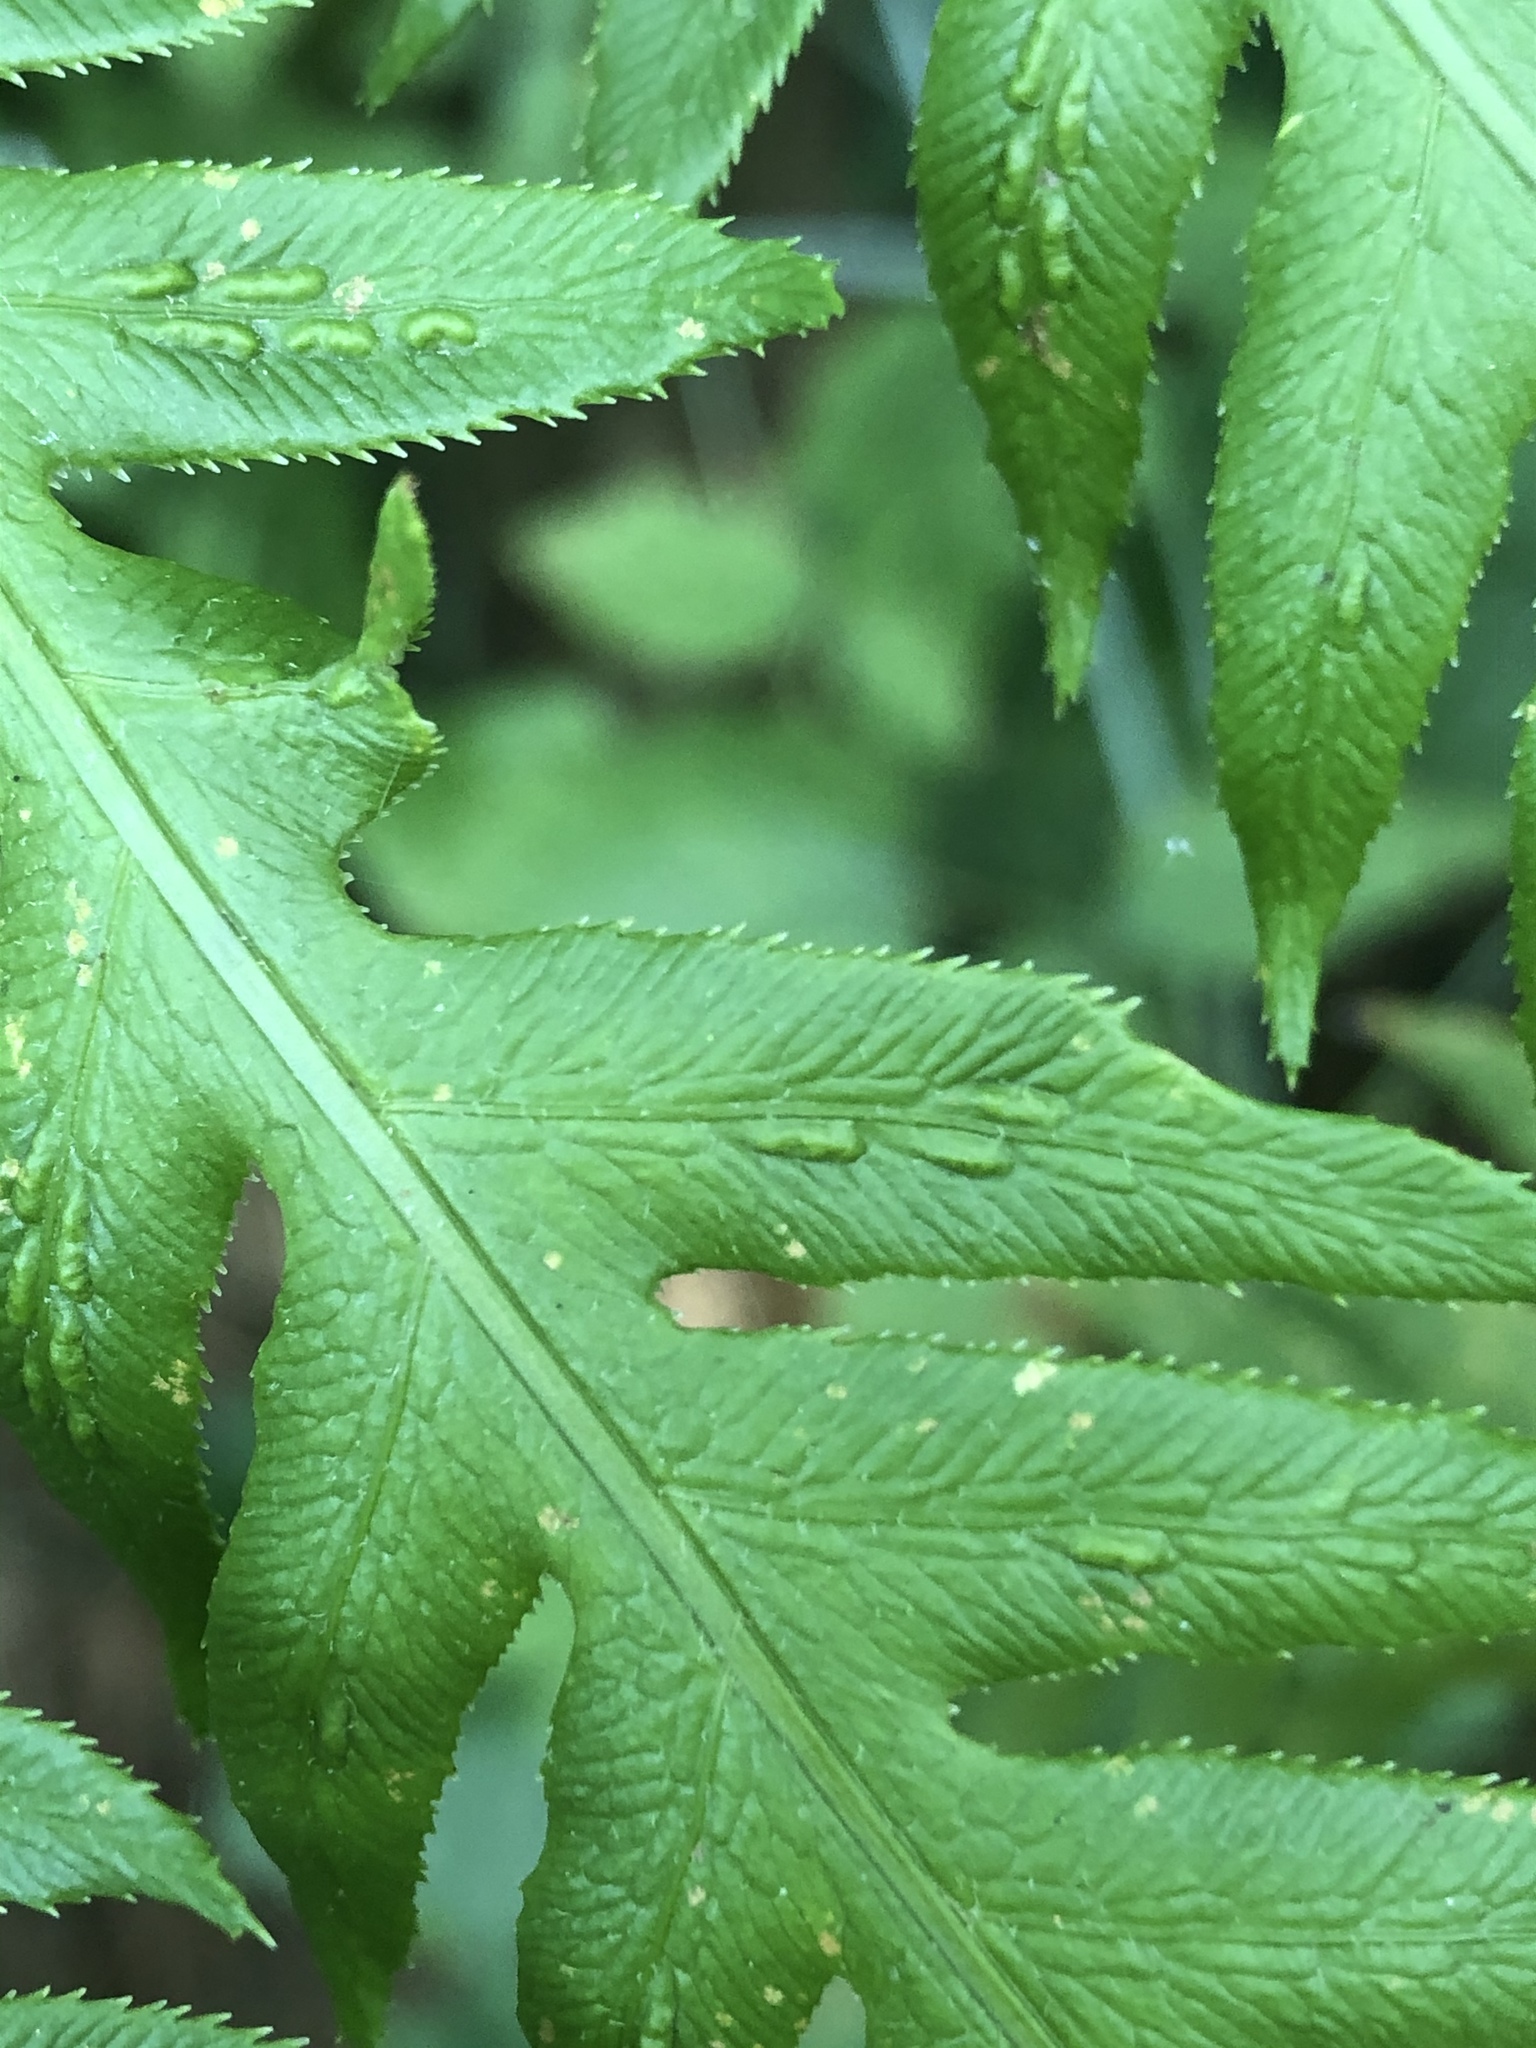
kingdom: Plantae
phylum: Tracheophyta
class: Polypodiopsida
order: Polypodiales
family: Blechnaceae
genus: Woodwardia
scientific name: Woodwardia fimbriata
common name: Giant chain fern
